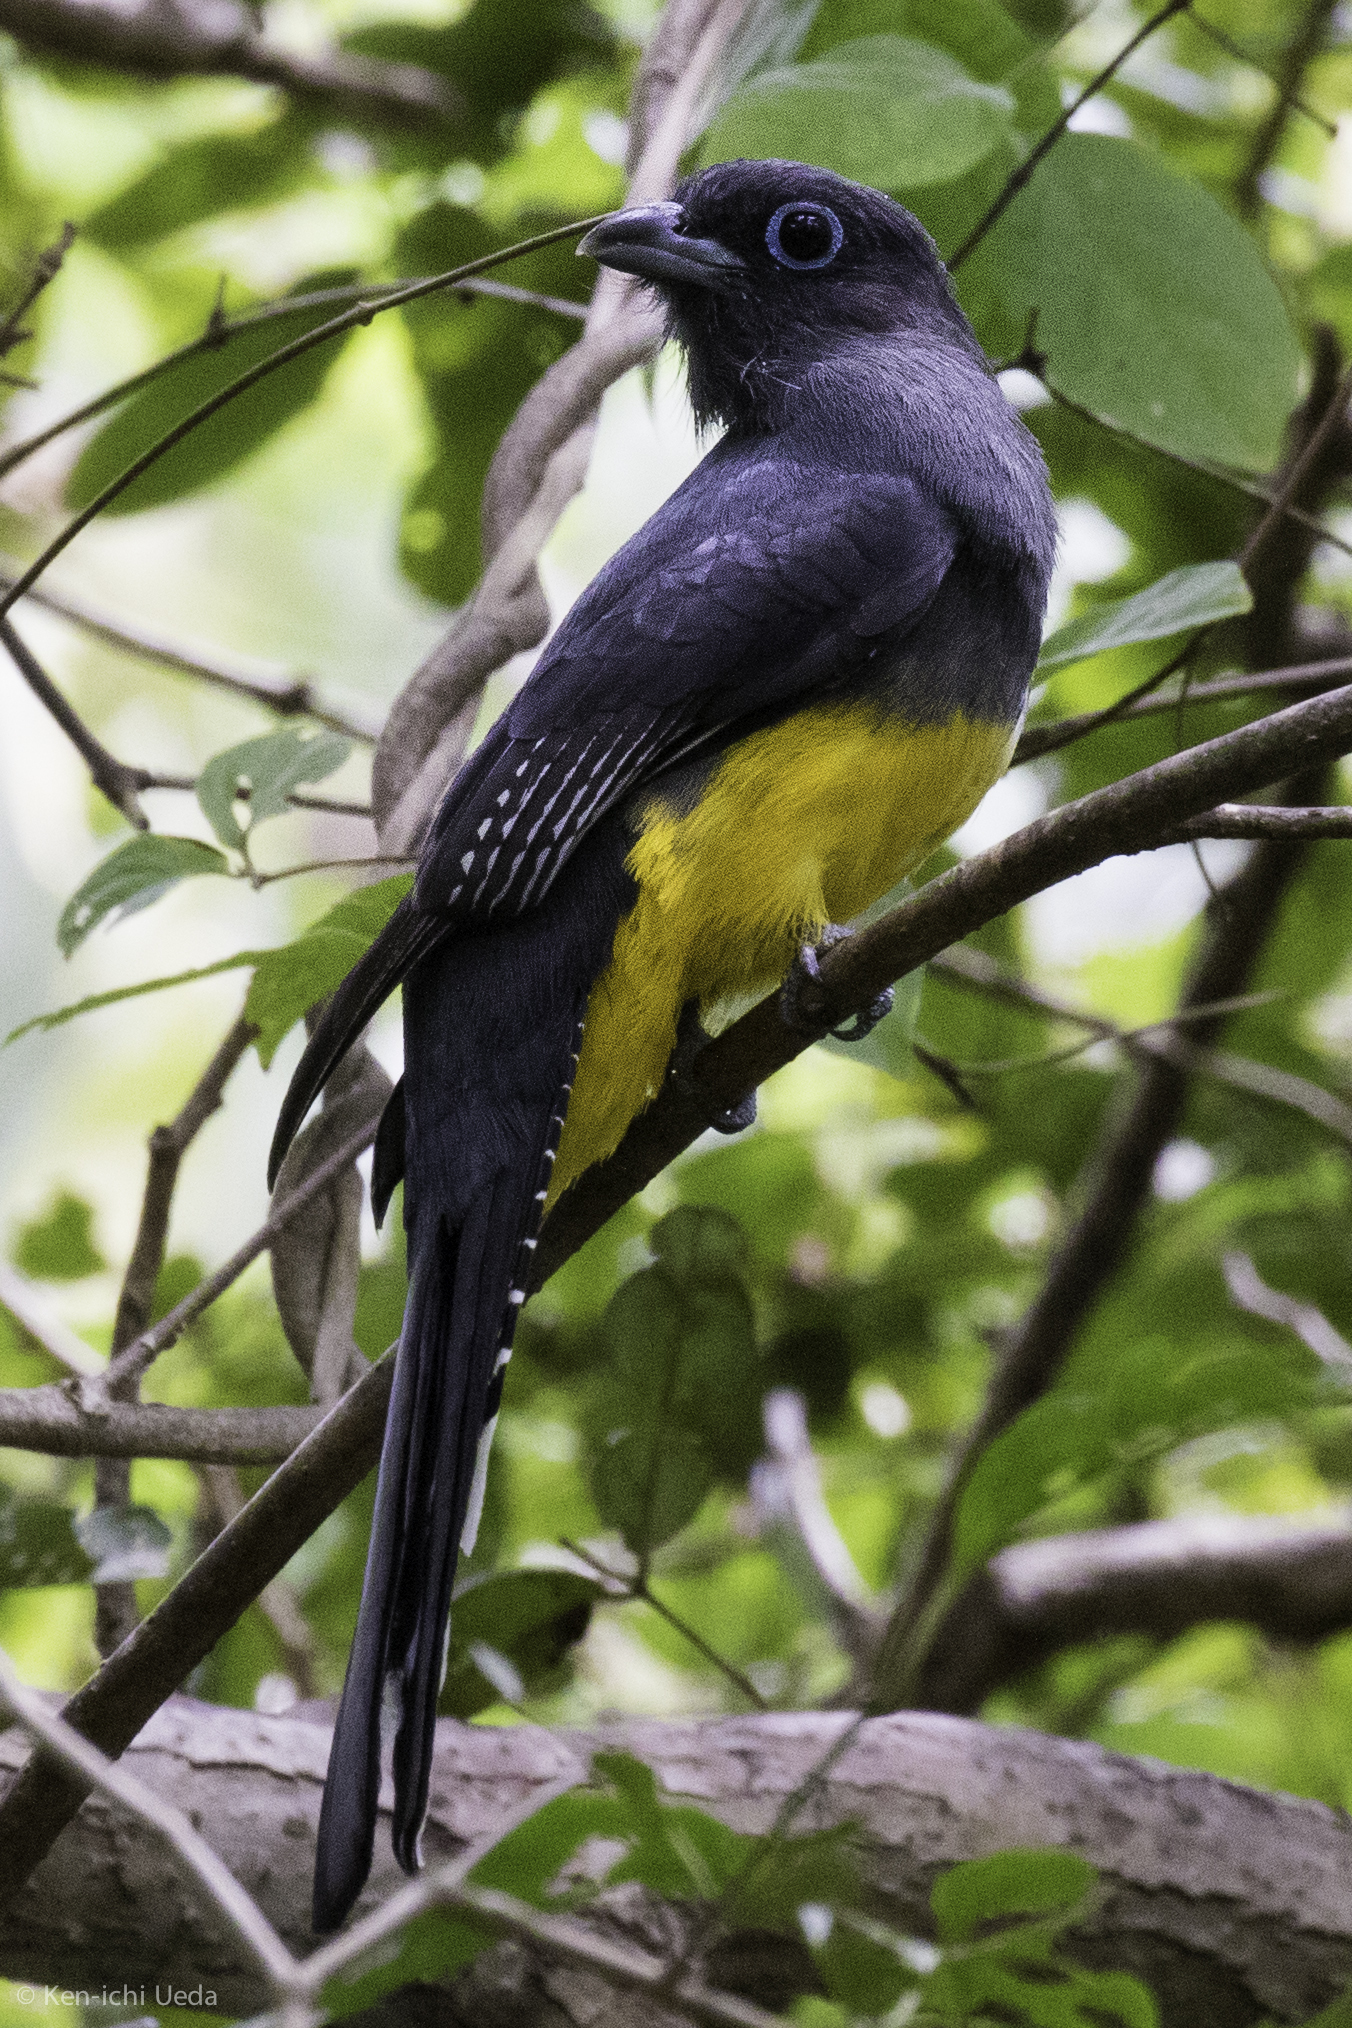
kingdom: Animalia
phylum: Chordata
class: Aves
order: Trogoniformes
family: Trogonidae
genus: Trogon
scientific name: Trogon melanocephalus
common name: Black-headed trogon
